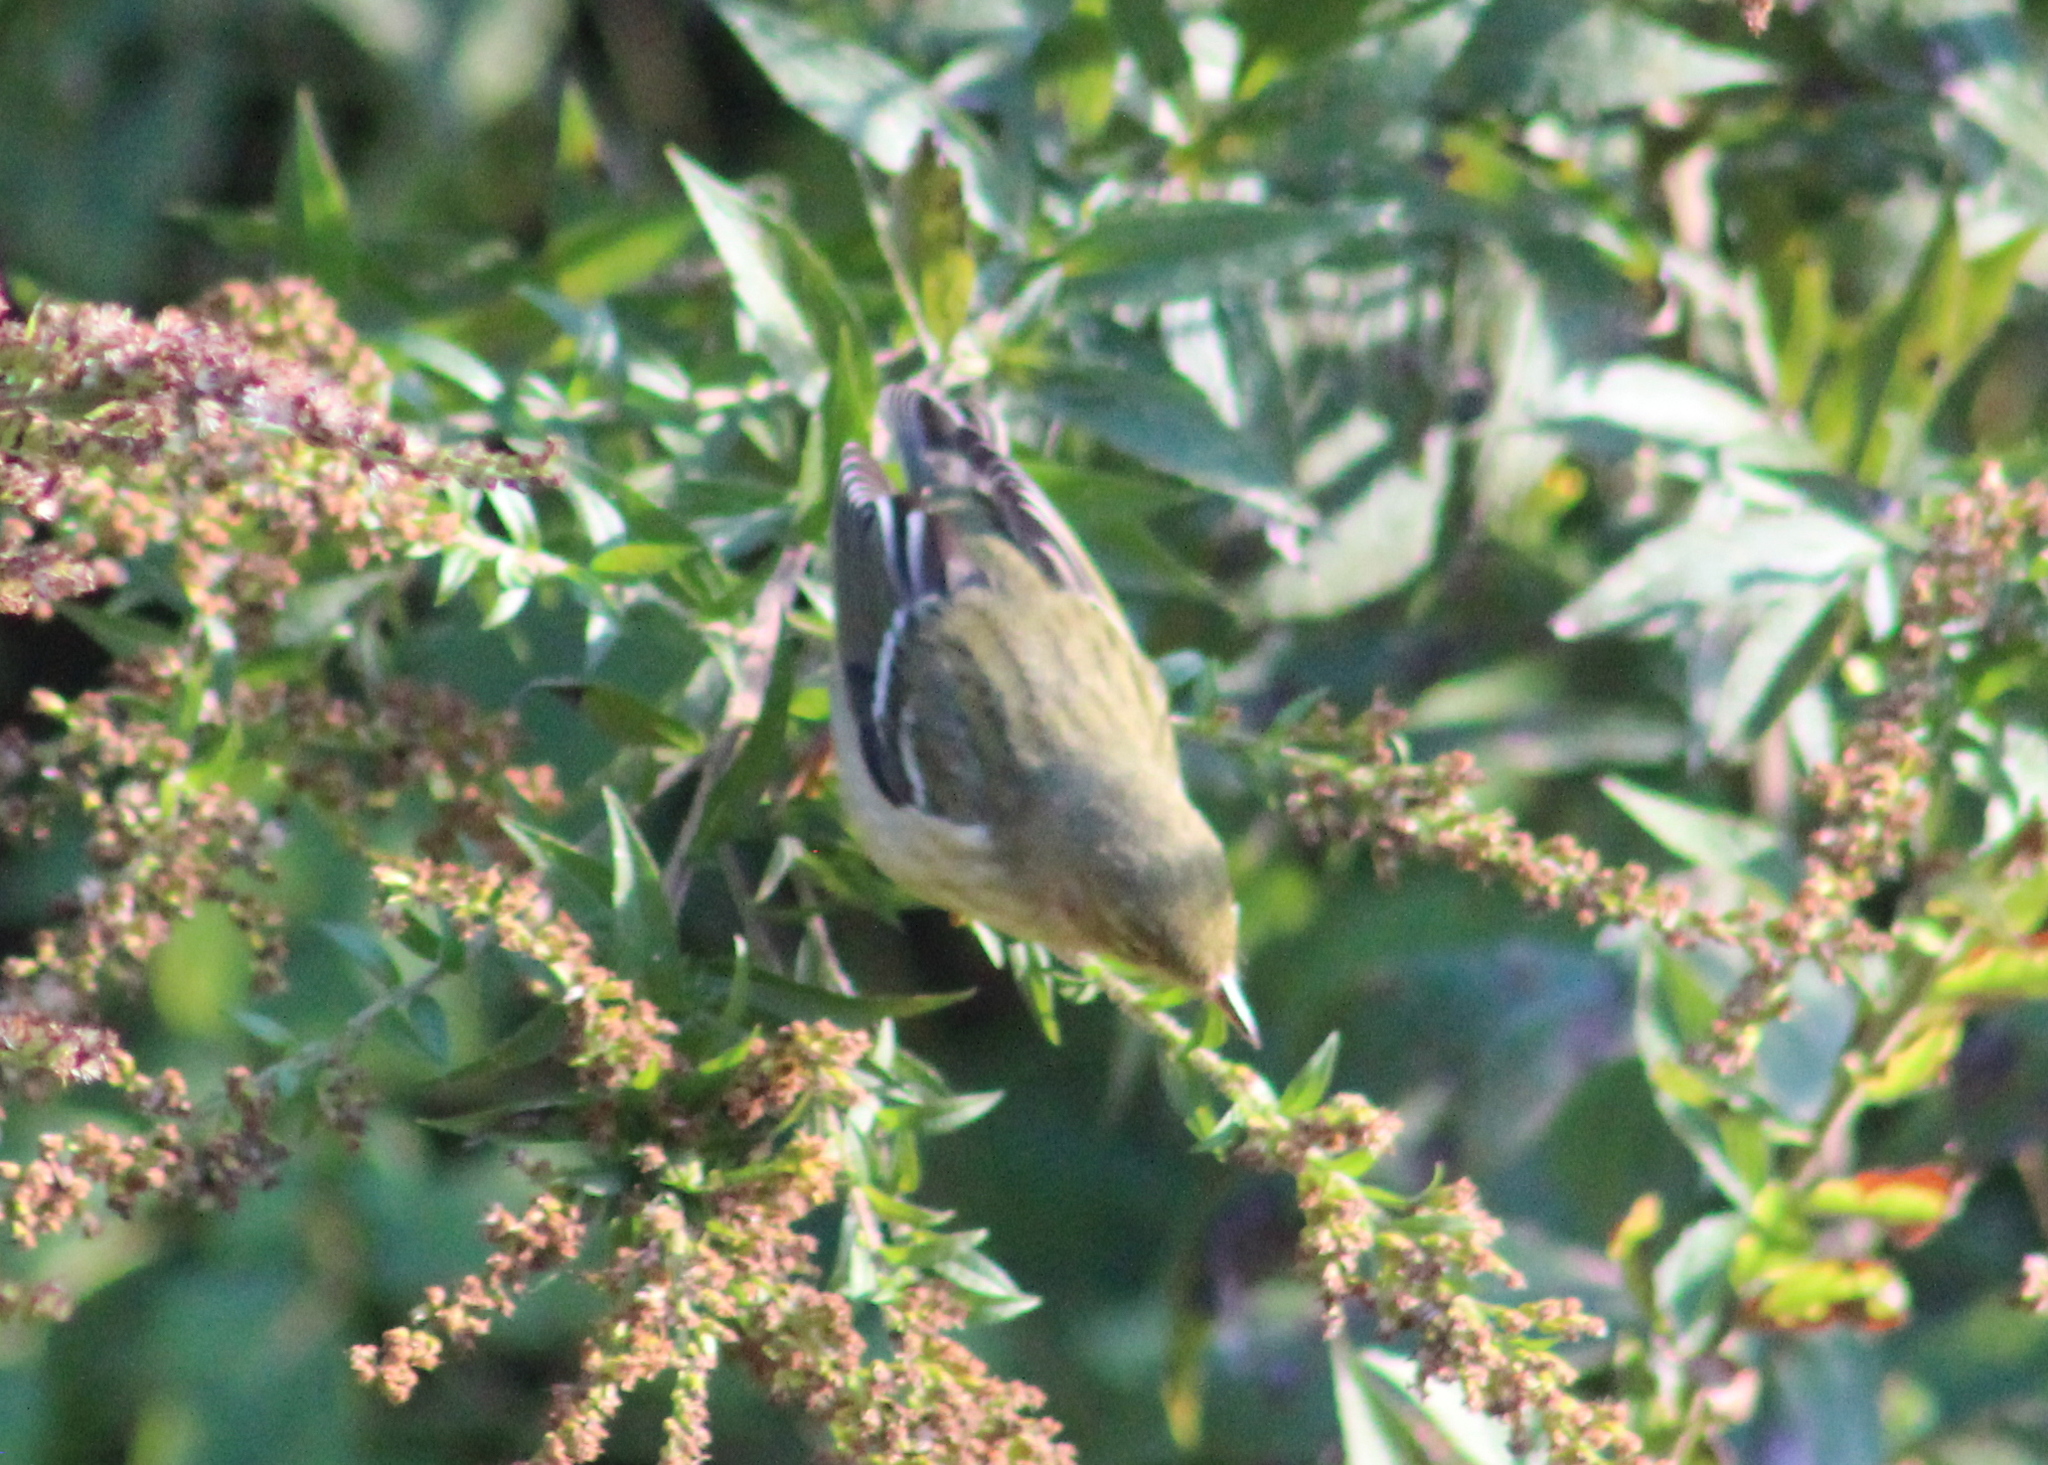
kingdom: Animalia
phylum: Chordata
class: Aves
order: Passeriformes
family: Parulidae
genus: Setophaga
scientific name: Setophaga striata
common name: Blackpoll warbler
